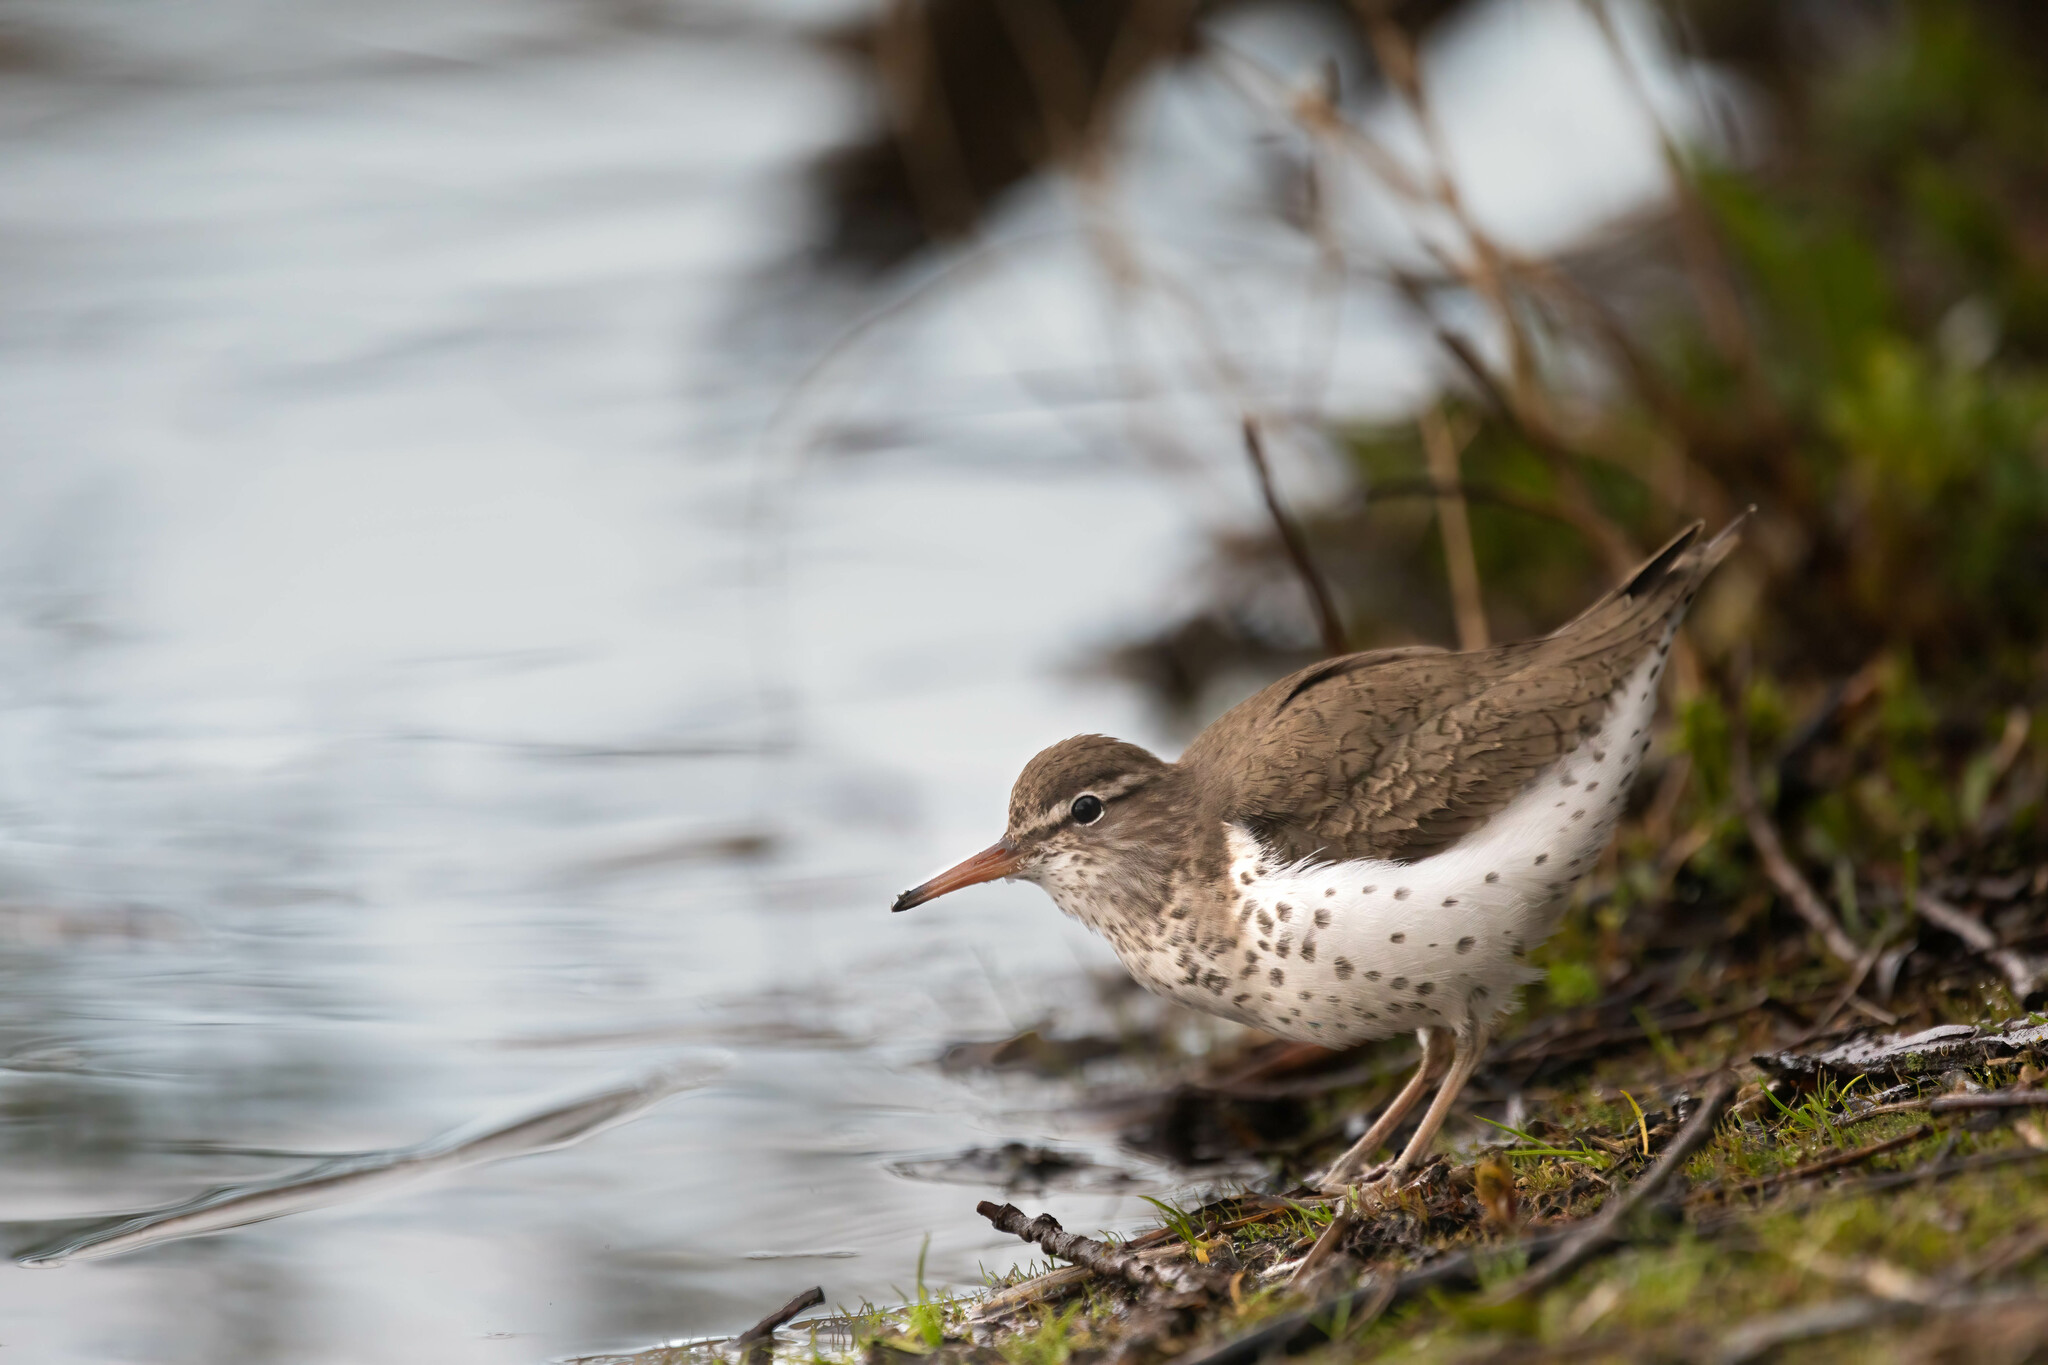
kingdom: Animalia
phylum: Chordata
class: Aves
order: Charadriiformes
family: Scolopacidae
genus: Actitis
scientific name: Actitis macularius
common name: Spotted sandpiper
